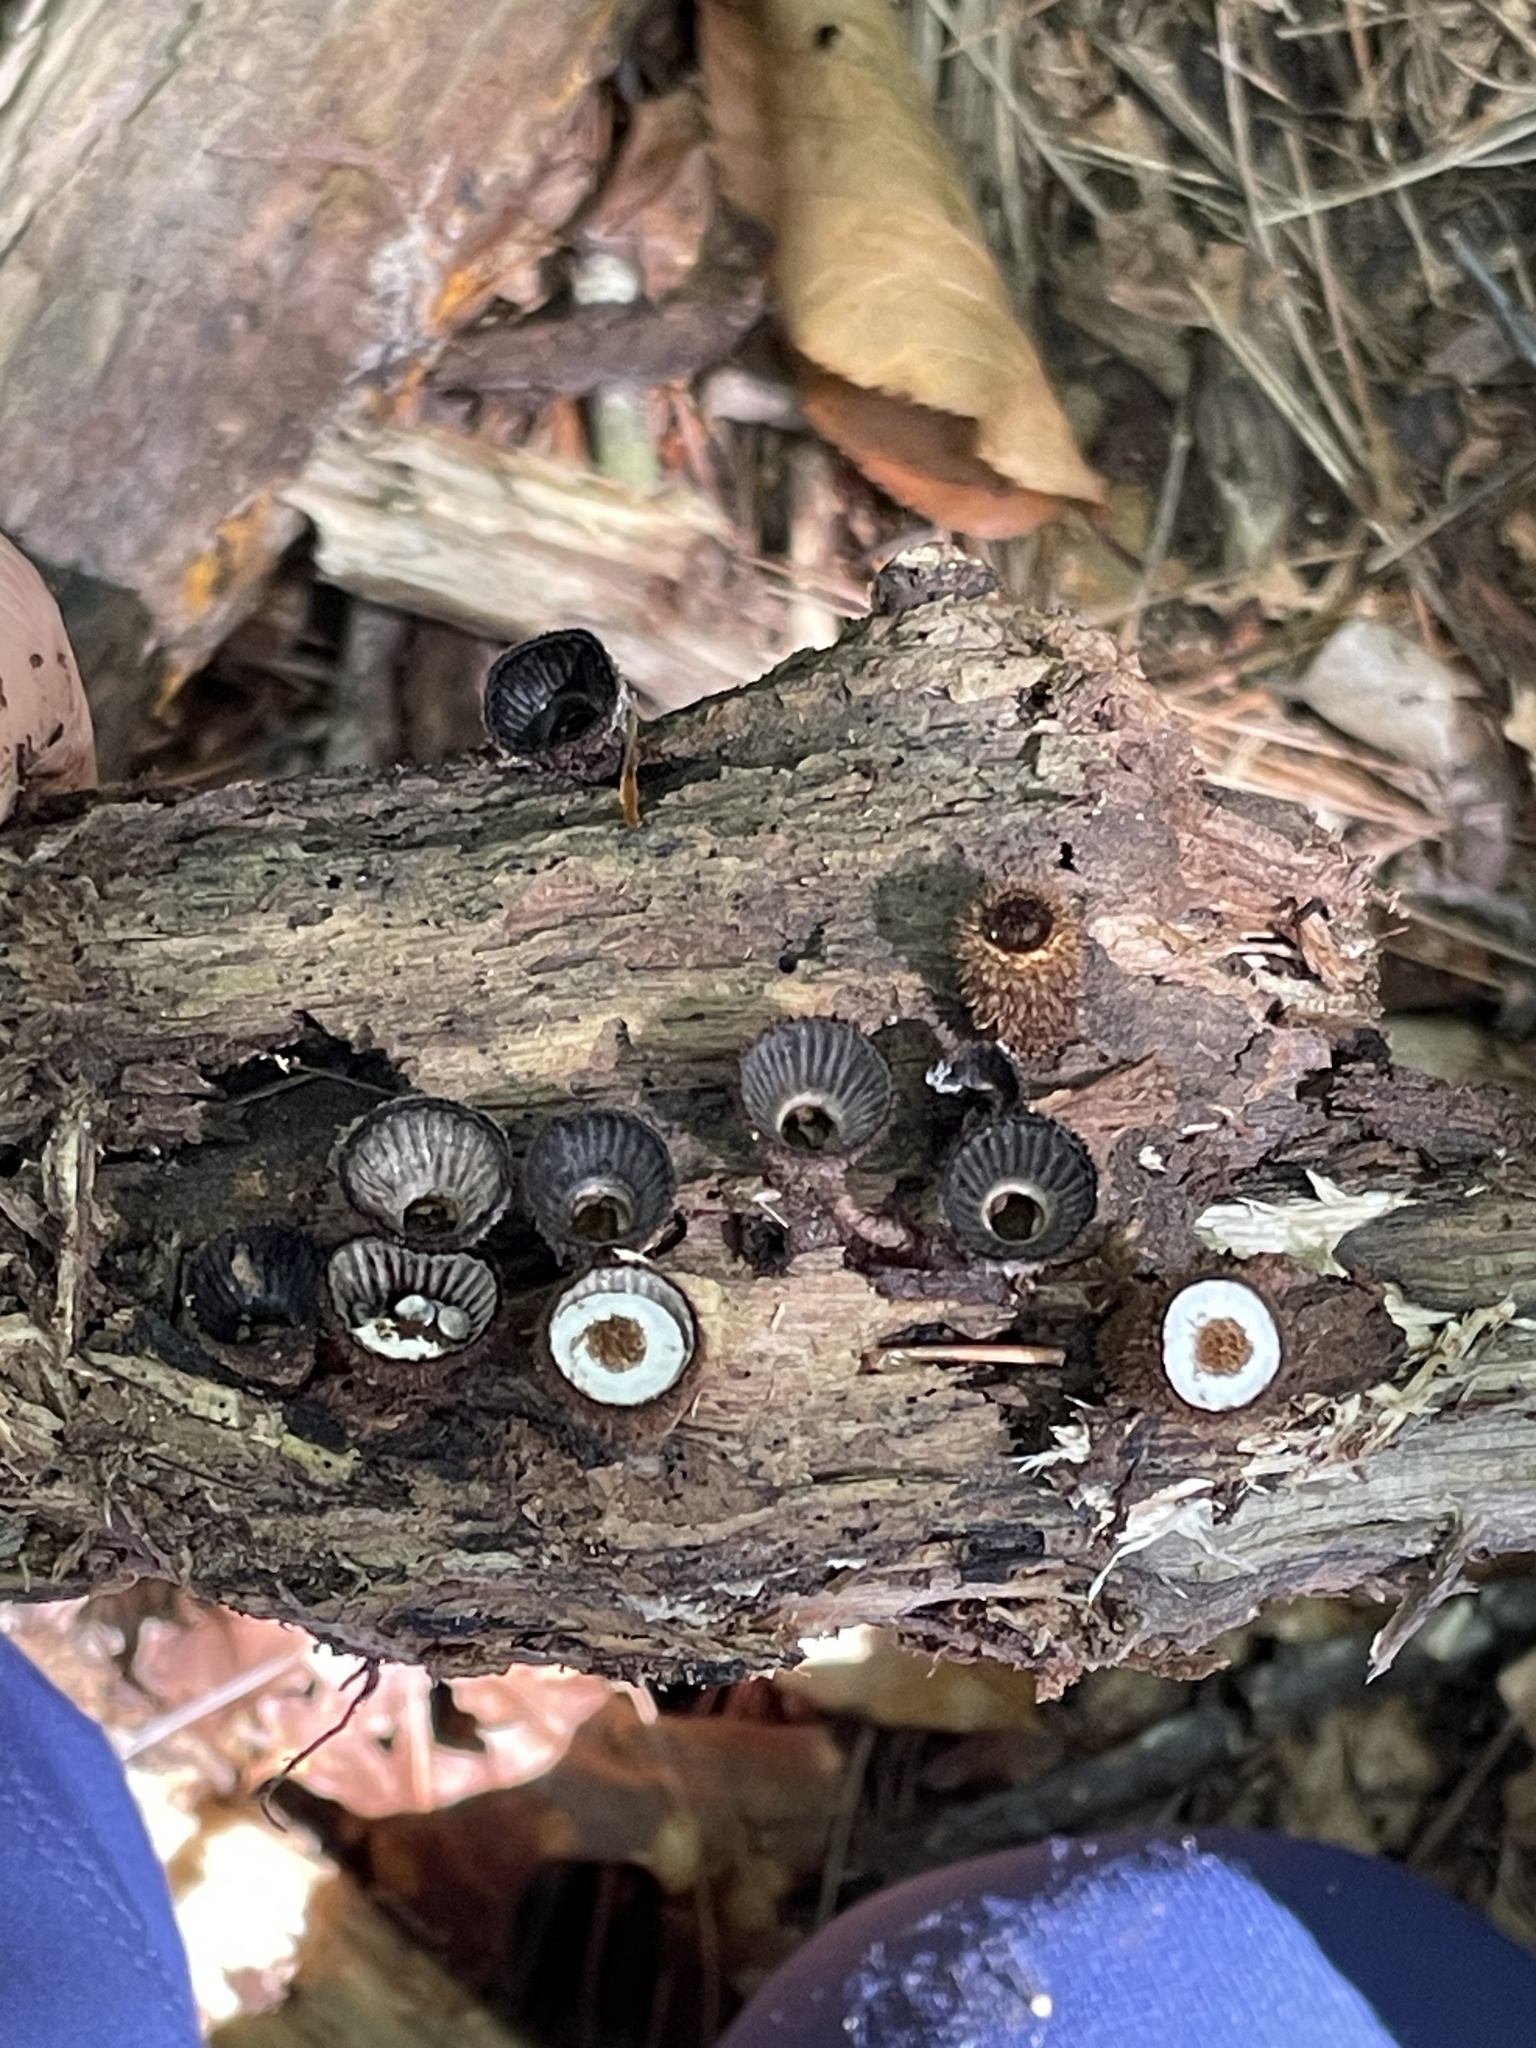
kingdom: Fungi
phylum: Basidiomycota
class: Agaricomycetes
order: Agaricales
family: Agaricaceae
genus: Cyathus
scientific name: Cyathus striatus
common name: Fluted bird's nest
